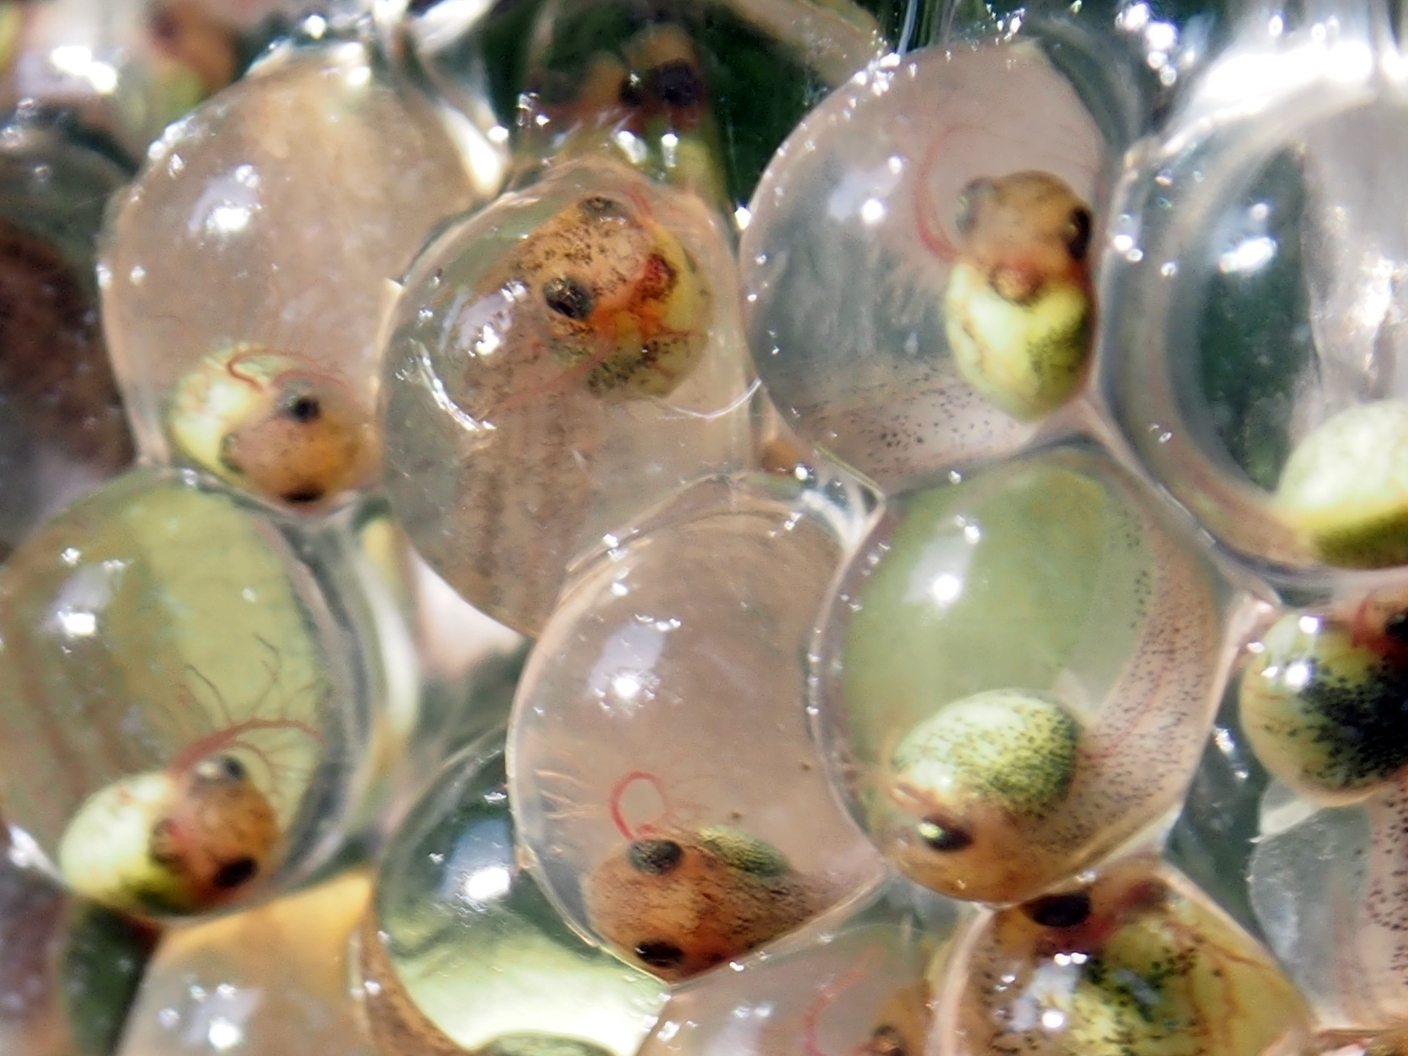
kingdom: Animalia
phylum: Chordata
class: Amphibia
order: Anura
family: Phyllomedusidae
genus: Agalychnis
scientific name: Agalychnis callidryas
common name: Red-eyed treefrog
